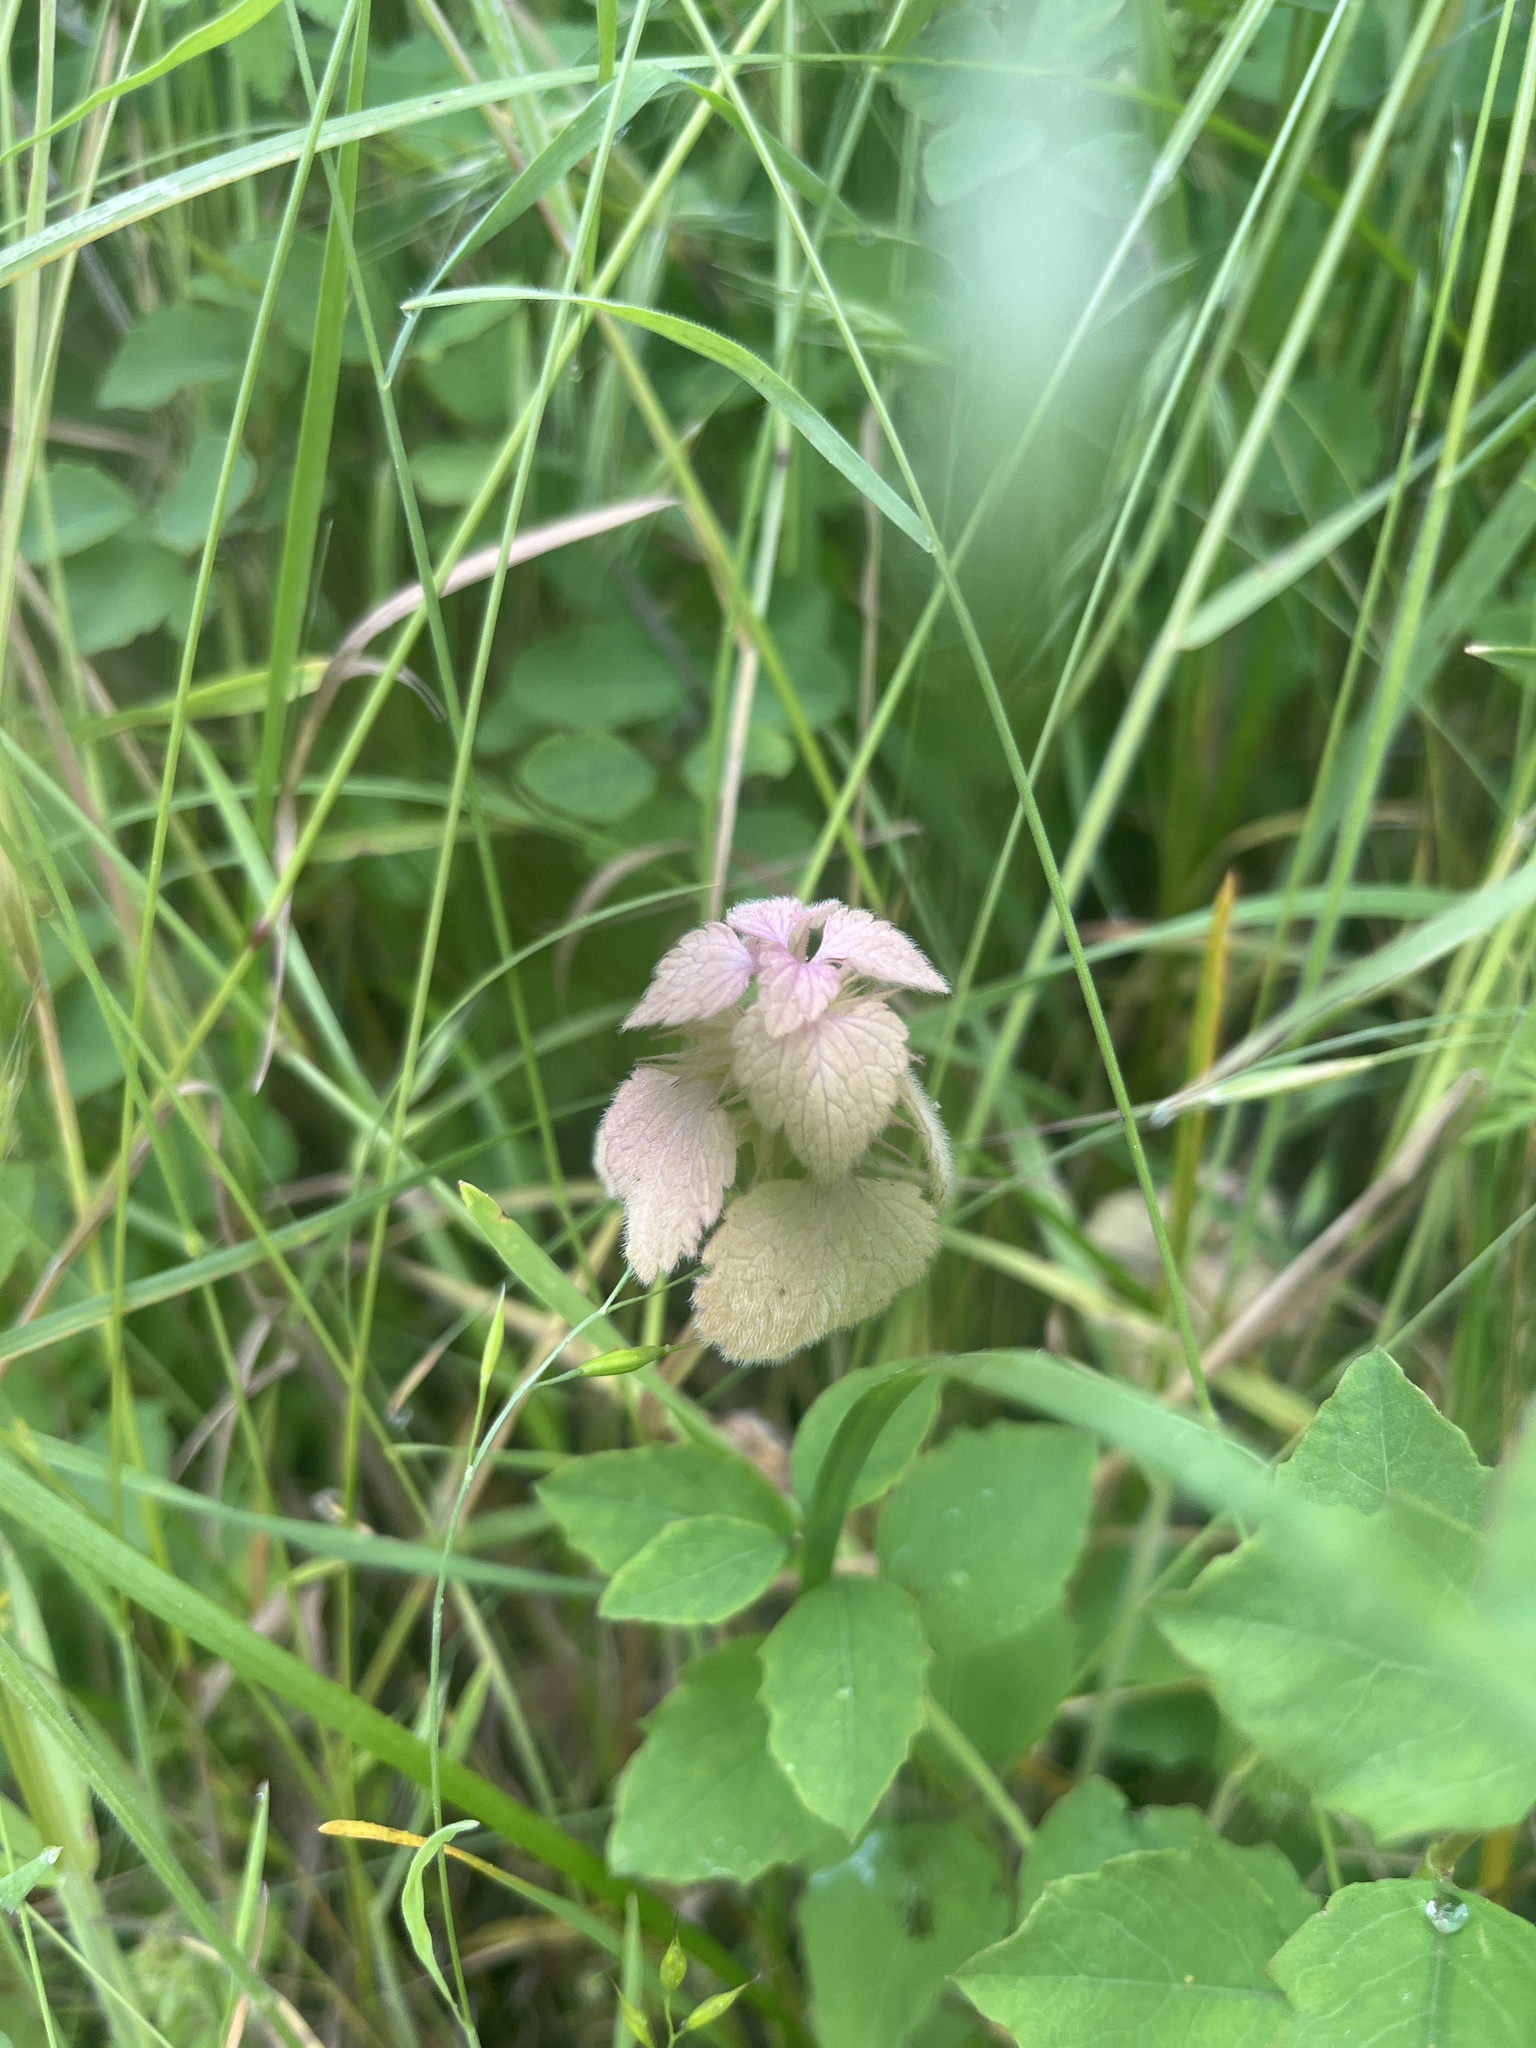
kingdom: Plantae
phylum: Tracheophyta
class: Magnoliopsida
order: Lamiales
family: Lamiaceae
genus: Lamium
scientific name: Lamium purpureum
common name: Red dead-nettle
